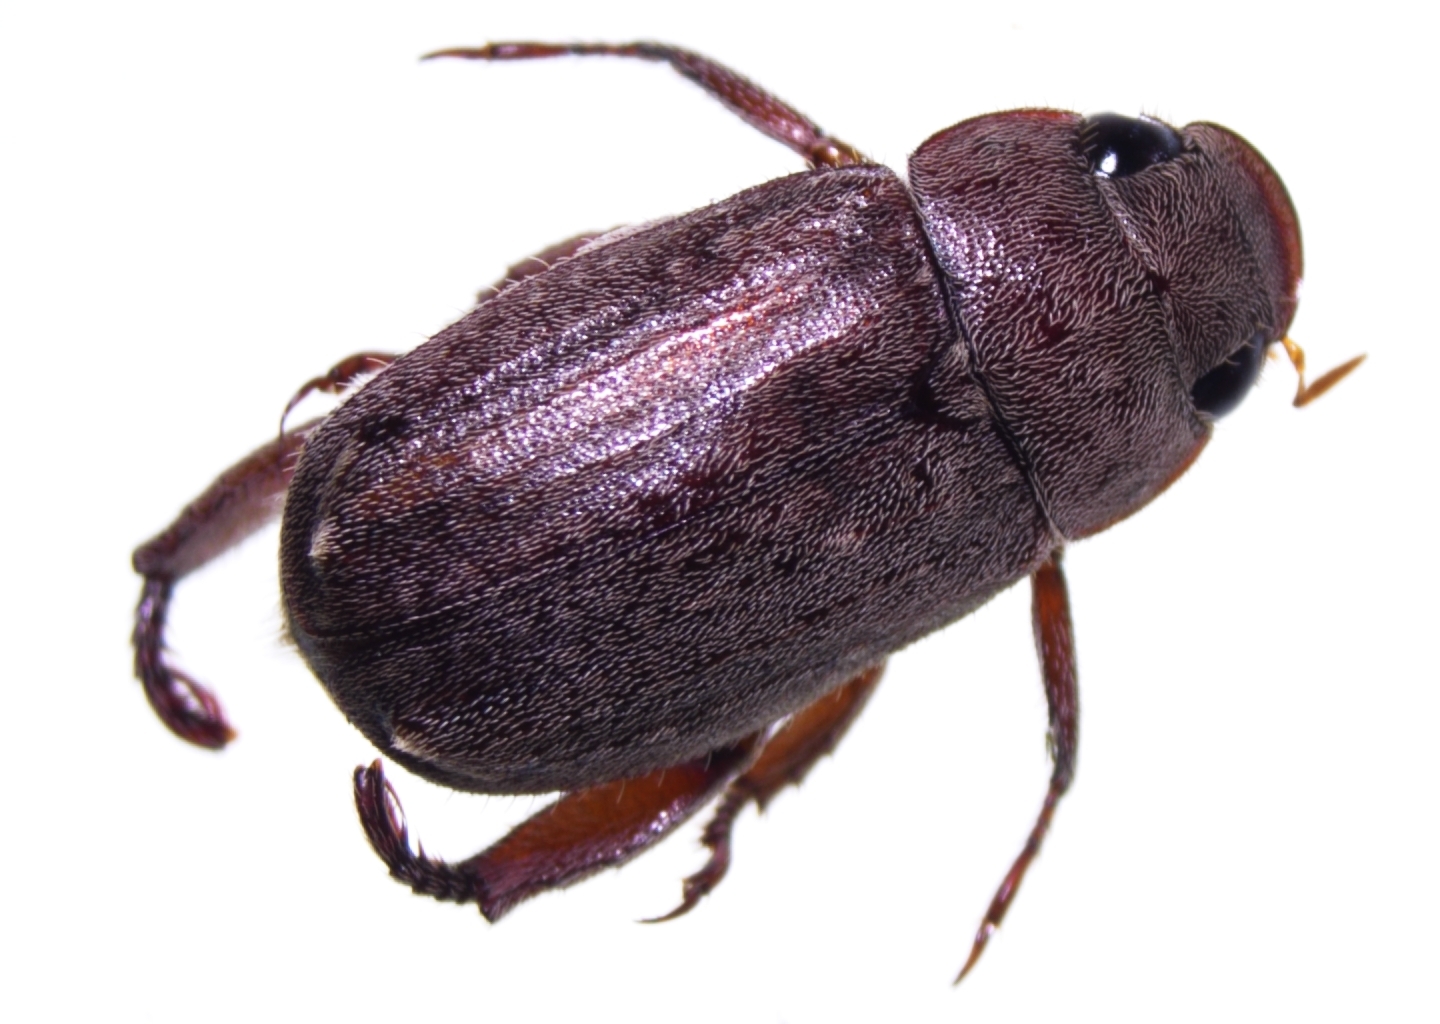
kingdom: Animalia
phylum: Arthropoda
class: Insecta
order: Coleoptera
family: Scarabaeidae
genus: Adoretus
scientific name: Adoretus sinicus
